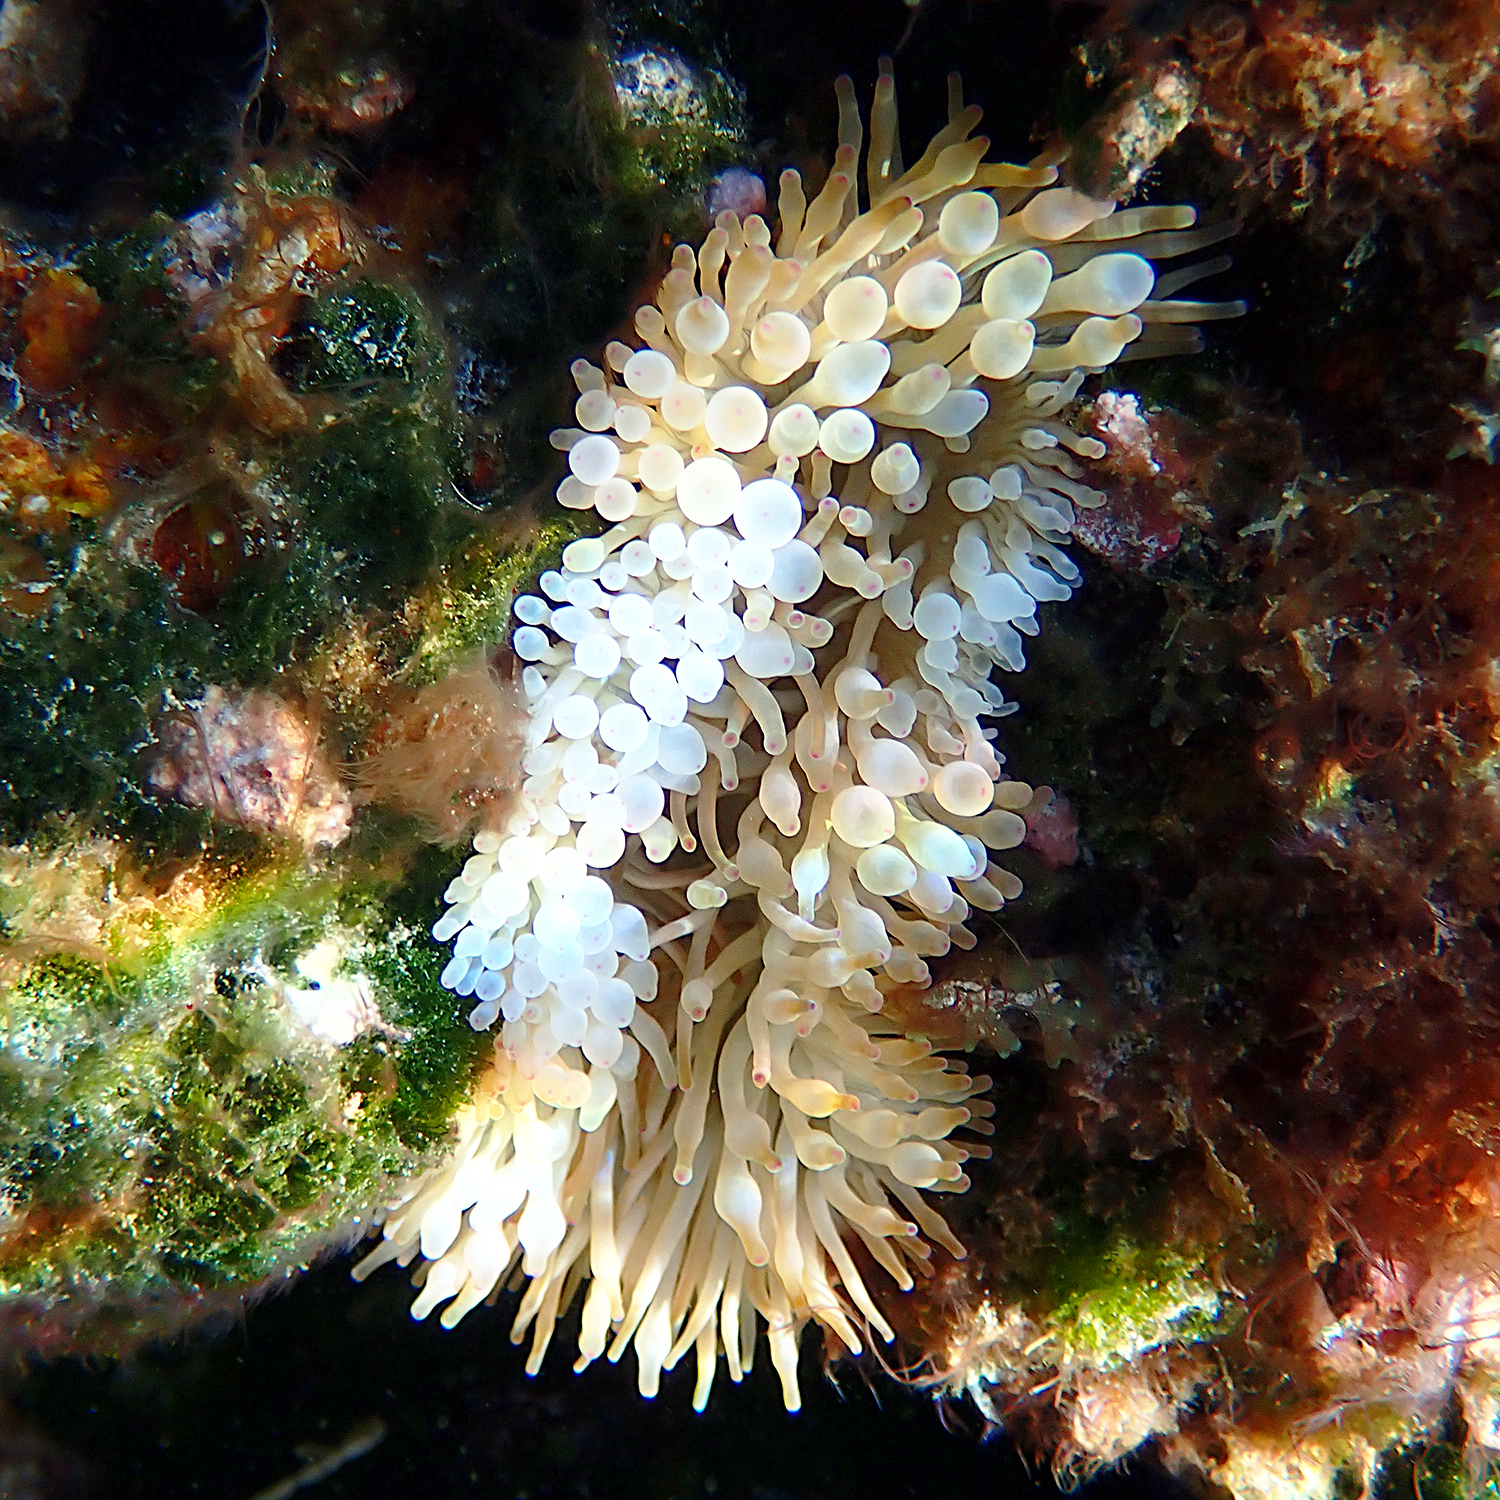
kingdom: Animalia
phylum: Cnidaria
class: Anthozoa
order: Actiniaria
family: Actiniidae
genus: Entacmaea
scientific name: Entacmaea quadricolor
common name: Bulb tentacle sea anemone
